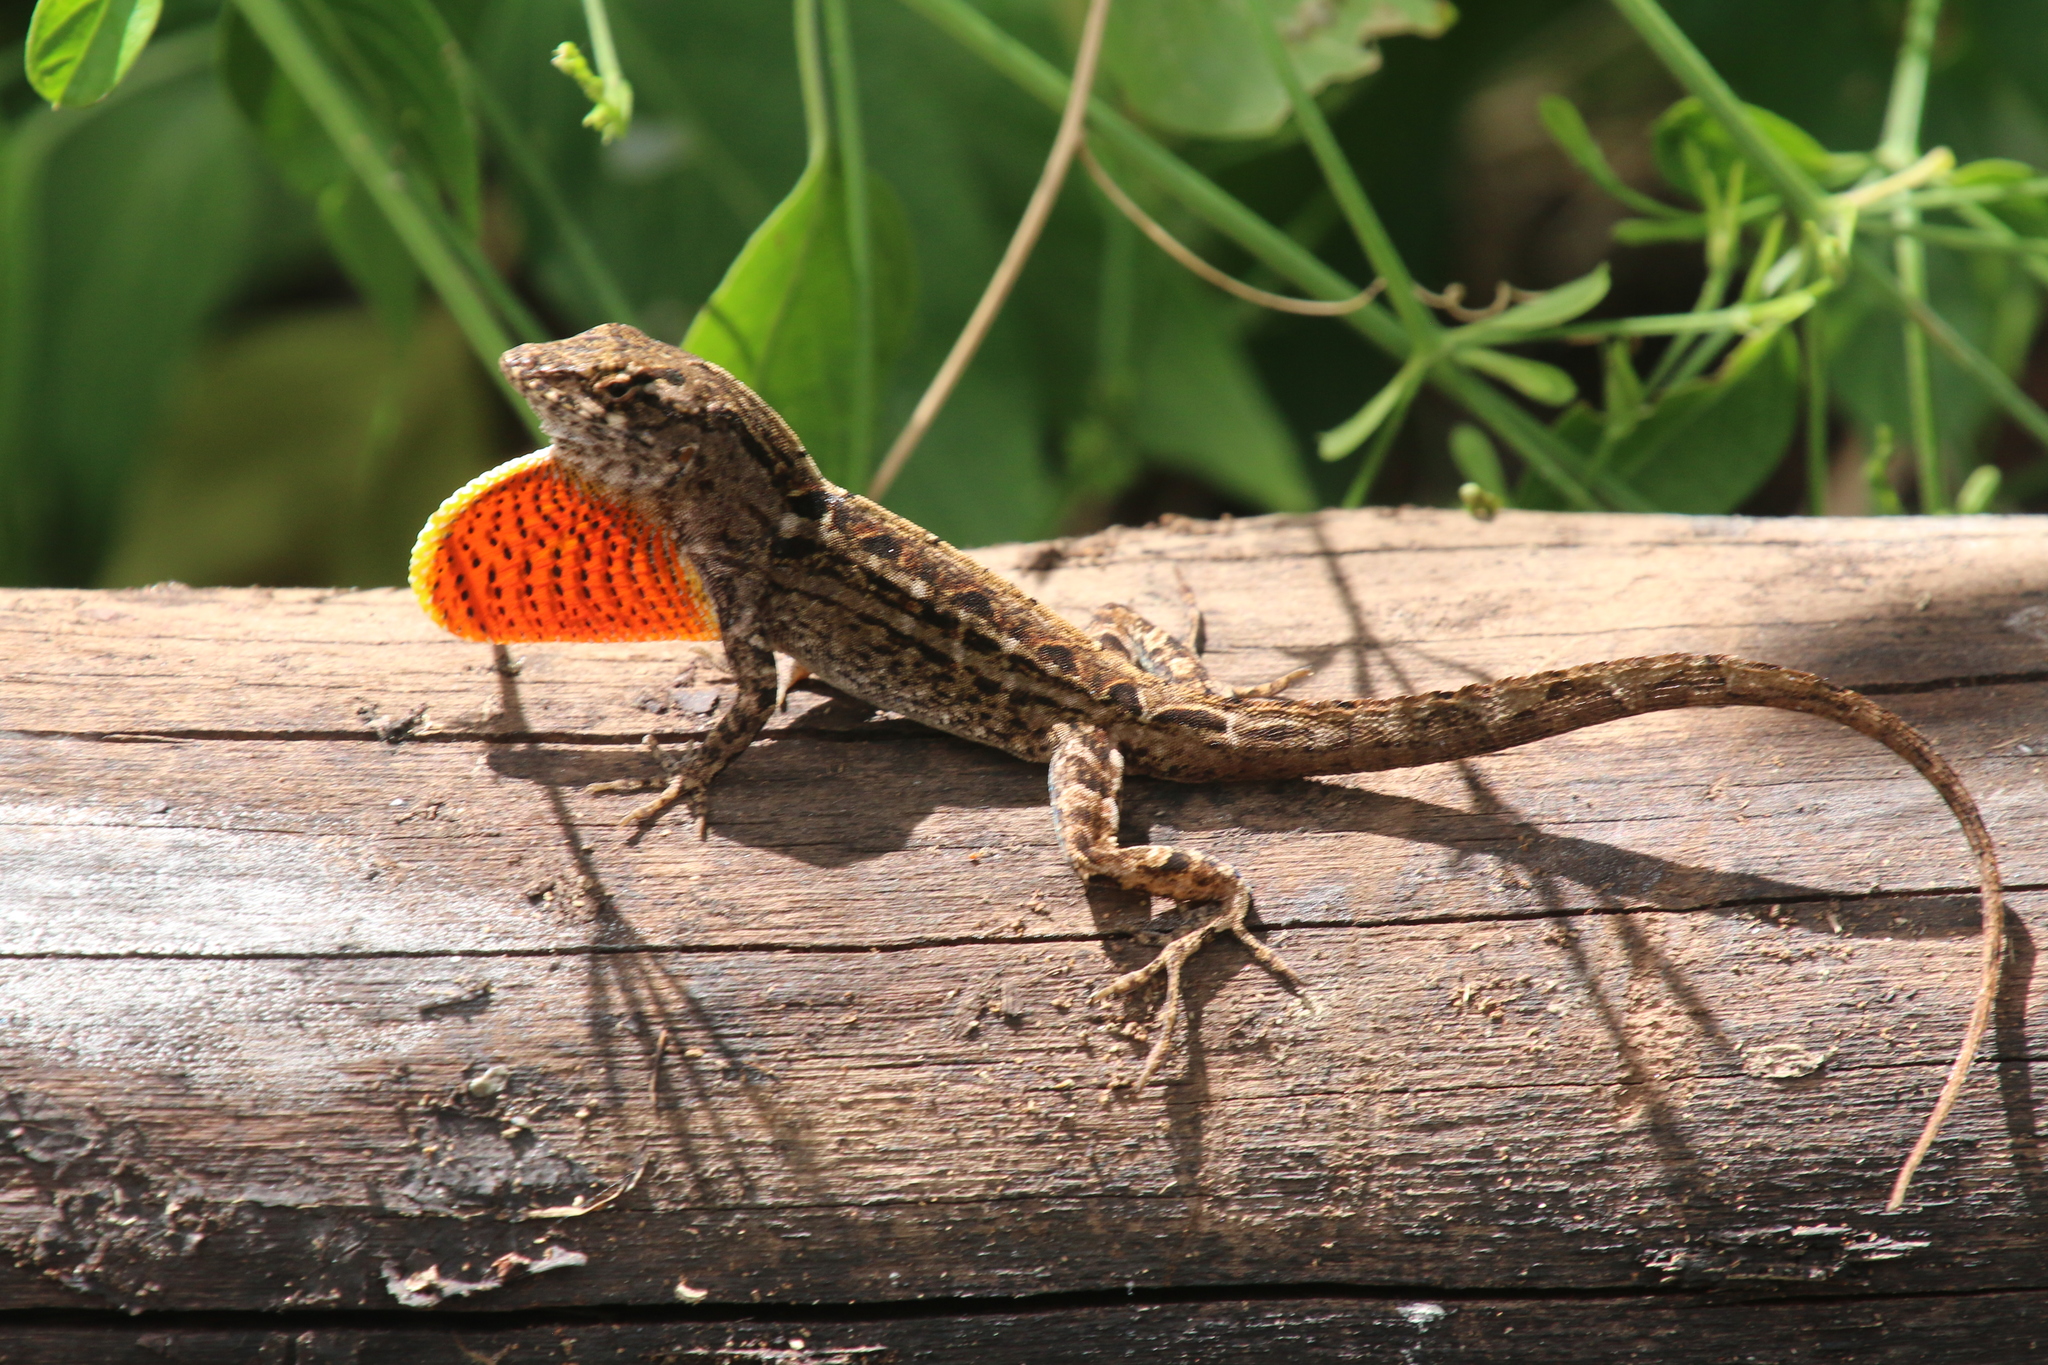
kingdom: Animalia
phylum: Chordata
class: Squamata
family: Dactyloidae
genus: Anolis
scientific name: Anolis sagrei
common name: Brown anole
